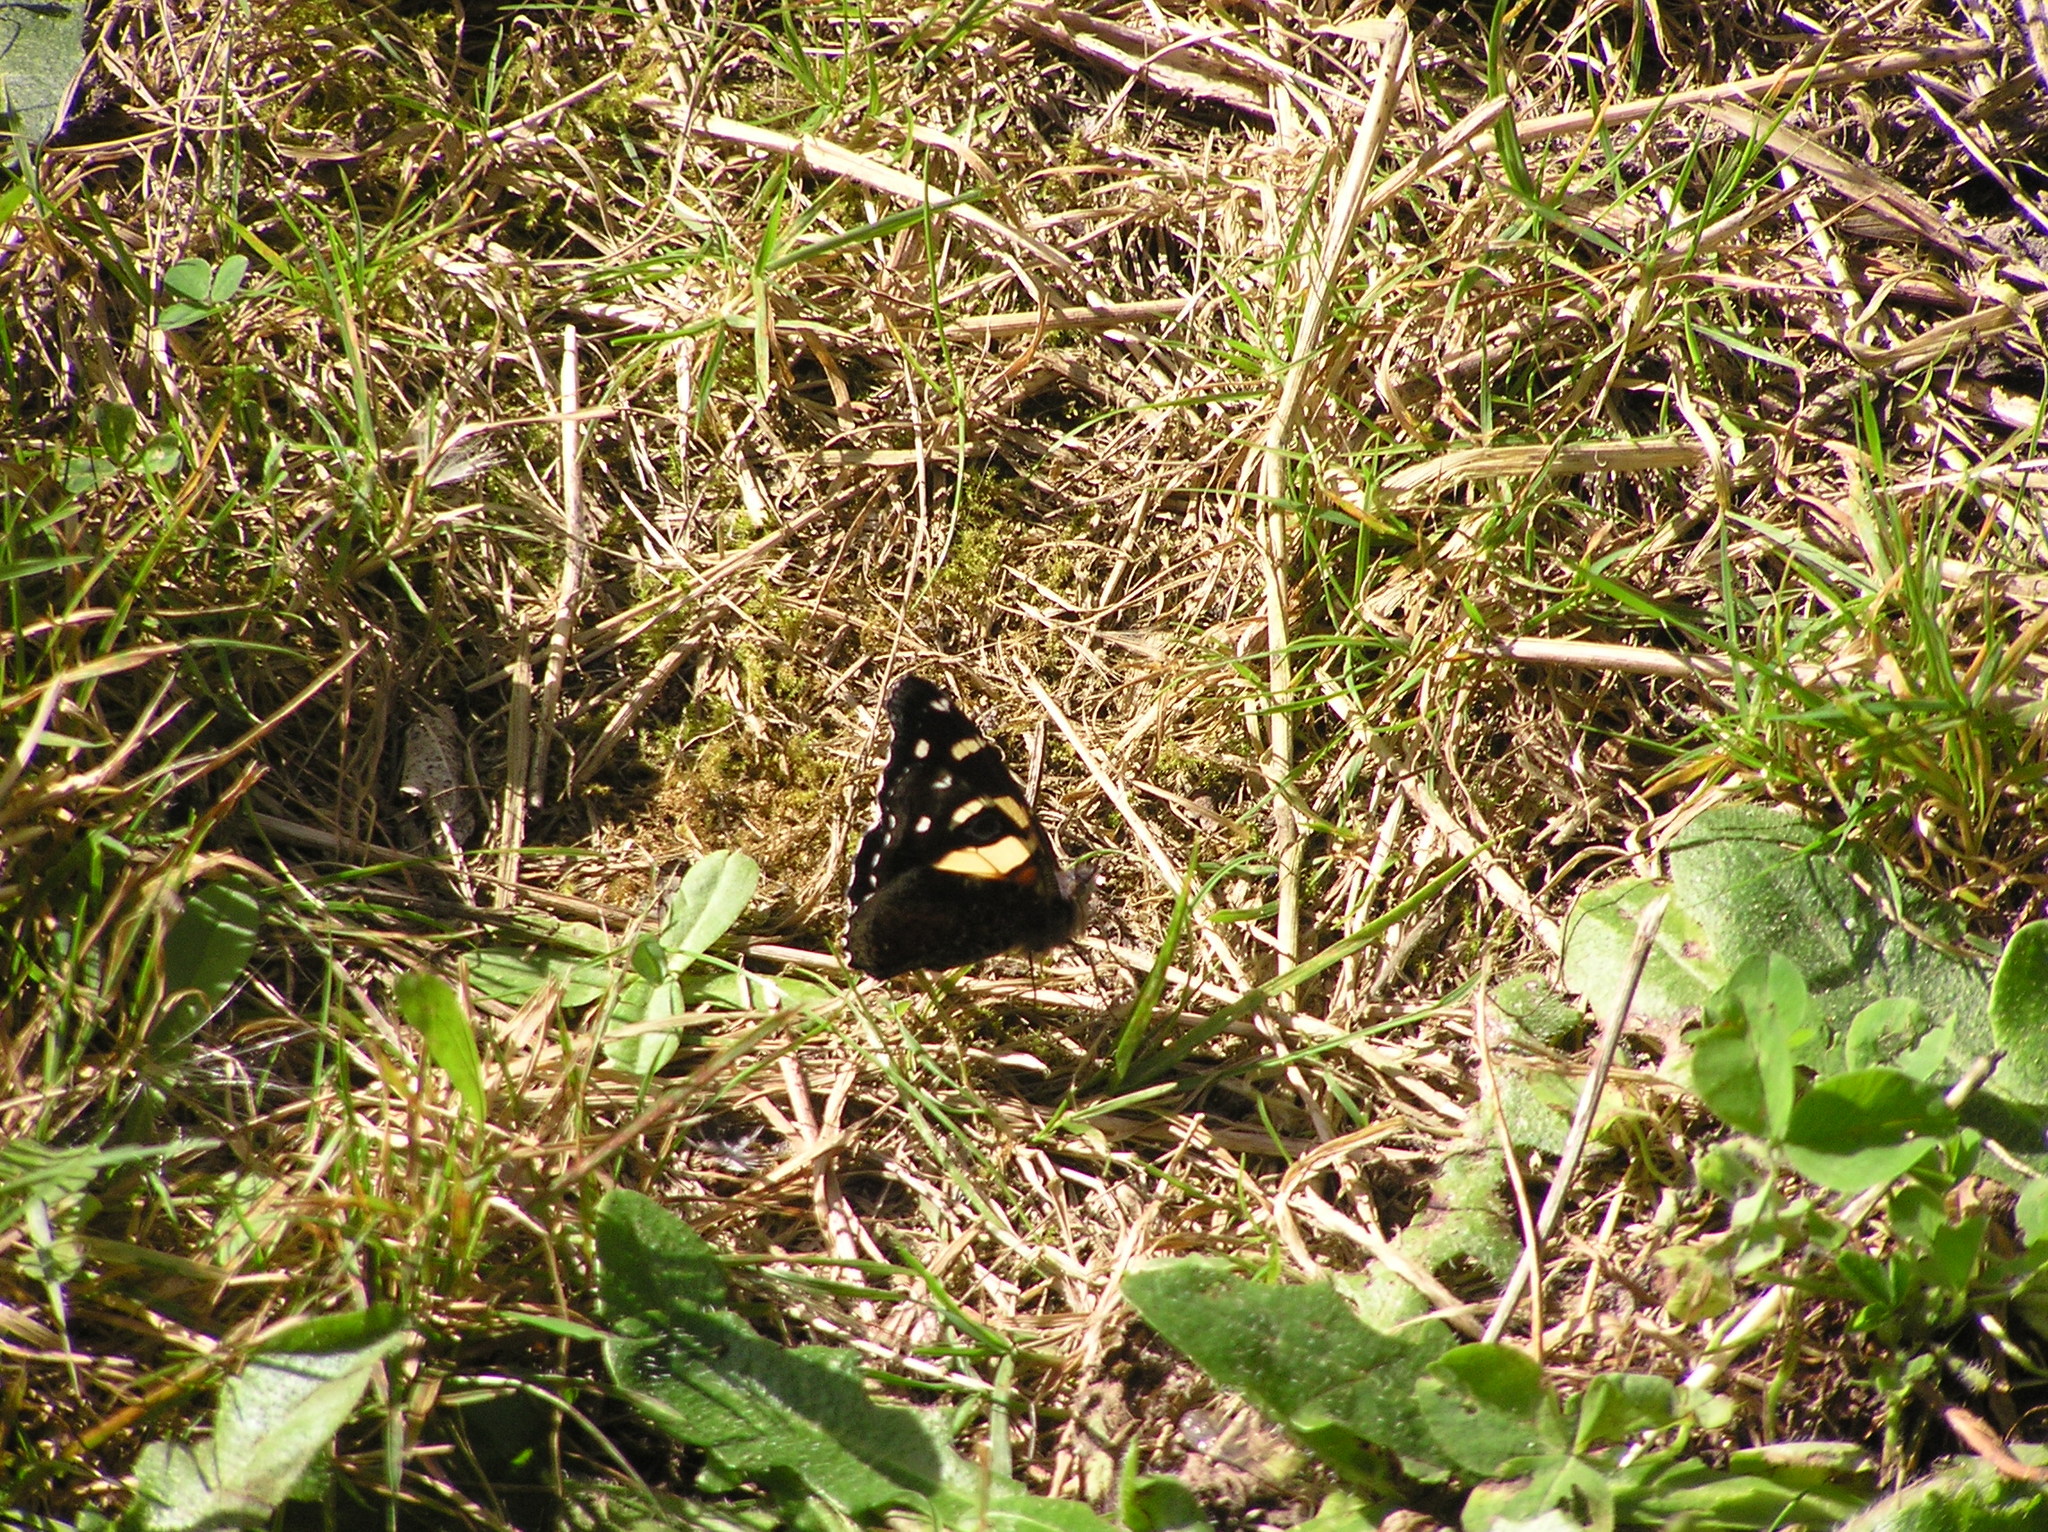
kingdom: Animalia
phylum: Arthropoda
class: Insecta
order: Lepidoptera
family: Nymphalidae
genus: Vanessa
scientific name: Vanessa itea
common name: Yellow admiral
